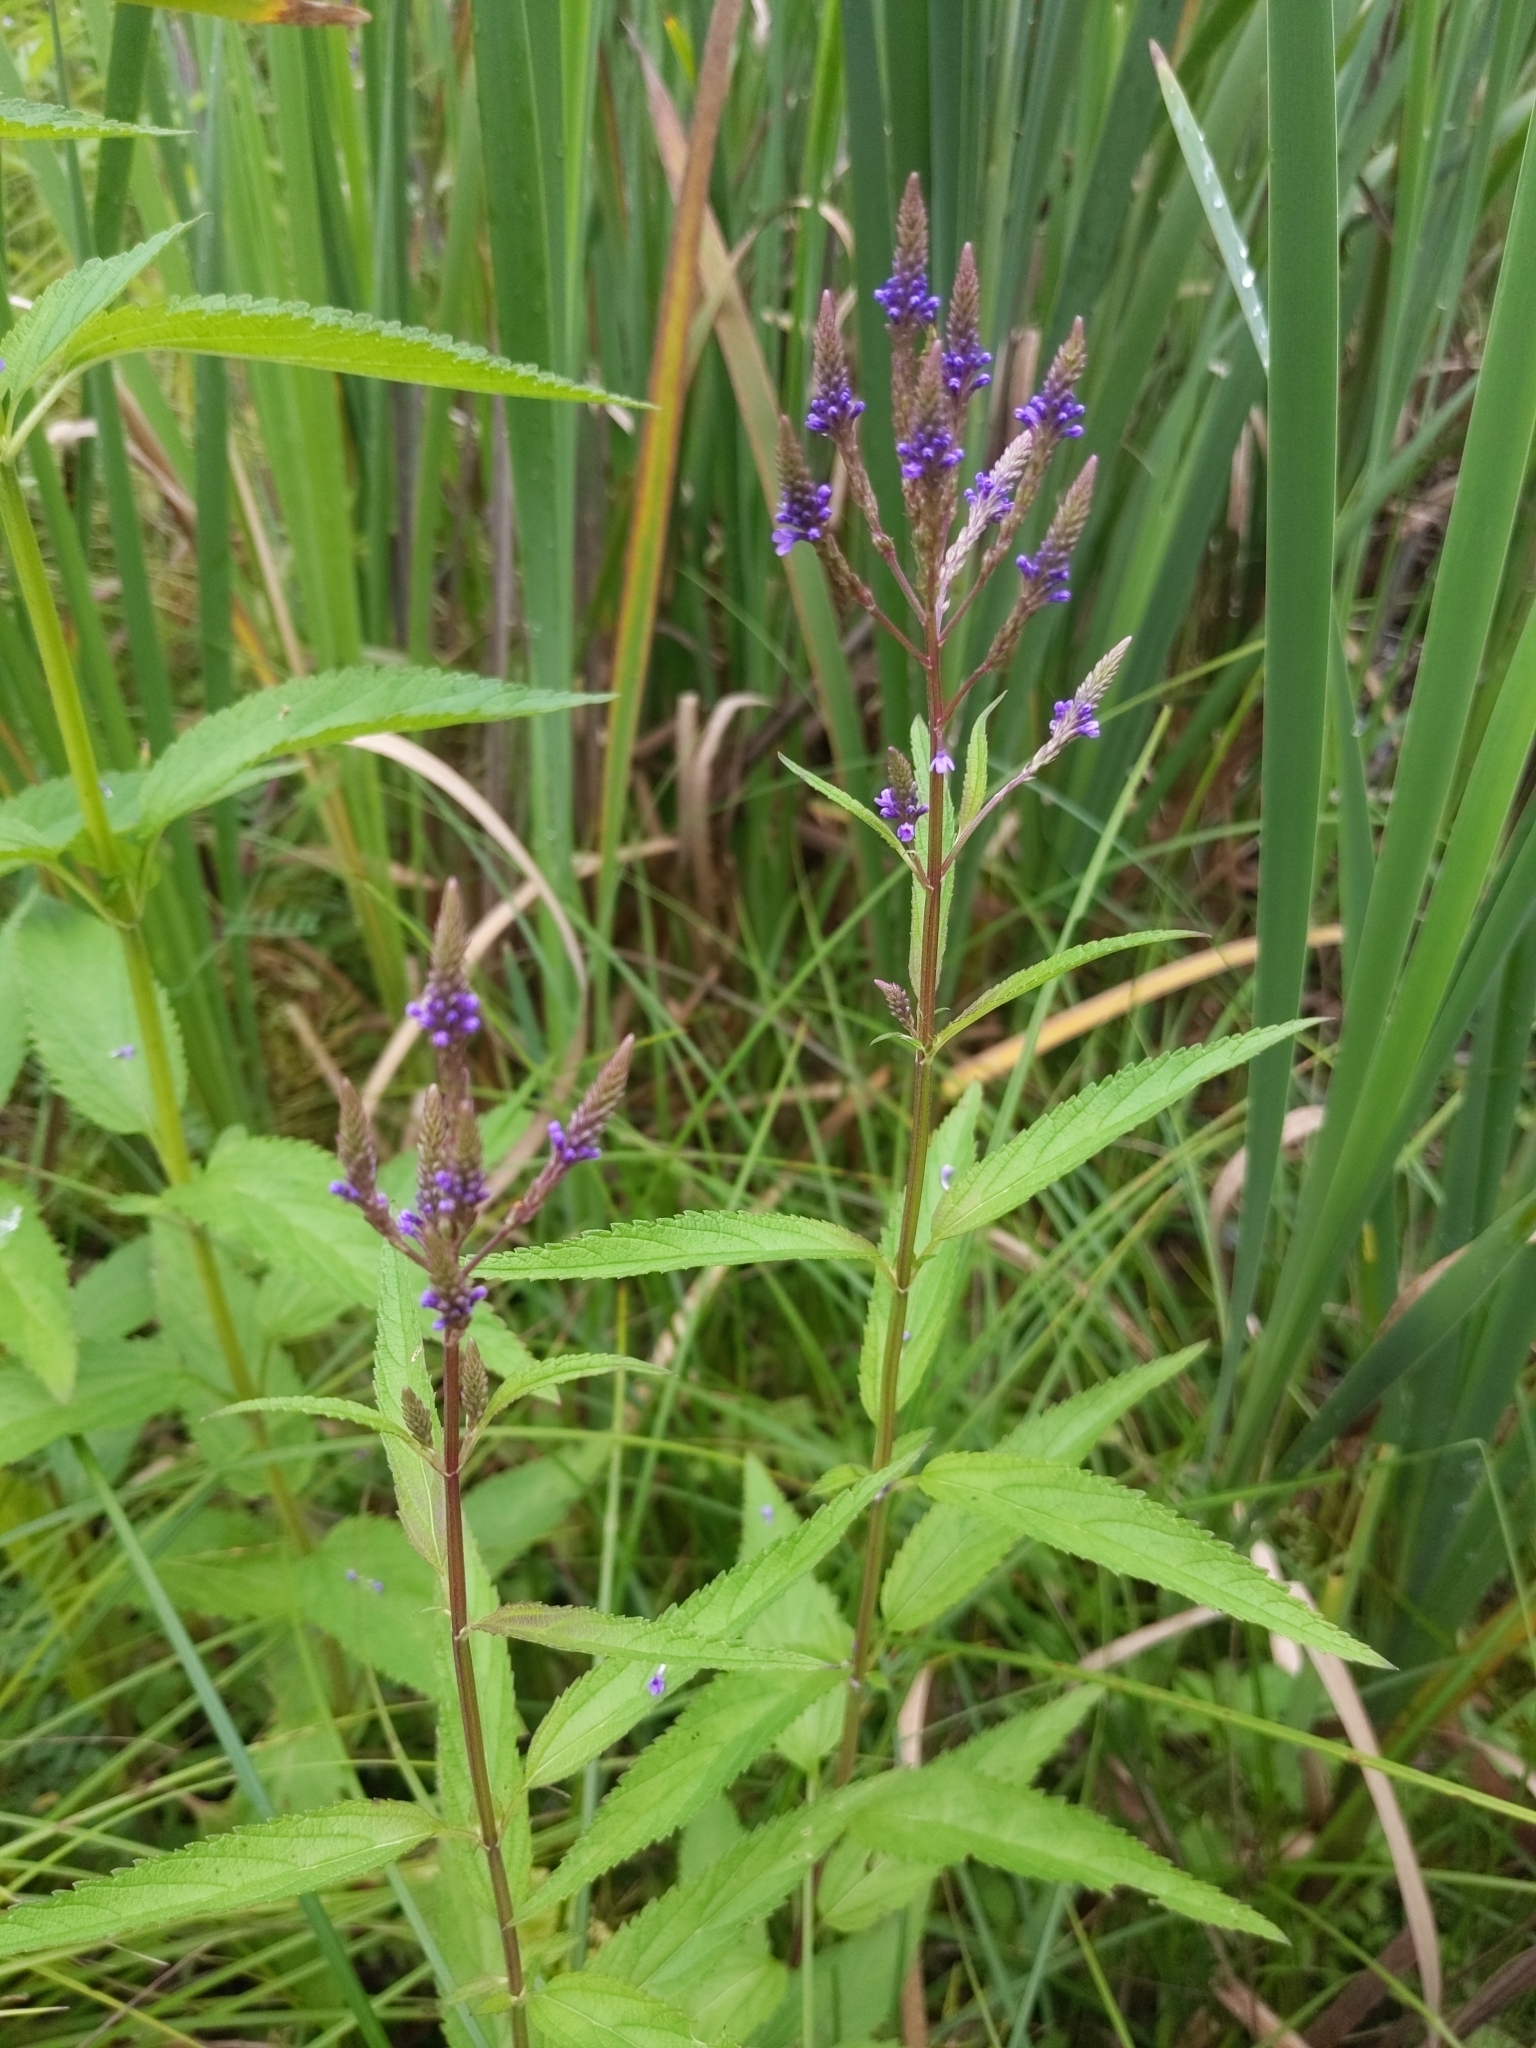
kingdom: Plantae
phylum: Tracheophyta
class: Magnoliopsida
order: Lamiales
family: Verbenaceae
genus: Verbena
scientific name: Verbena hastata
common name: American blue vervain
